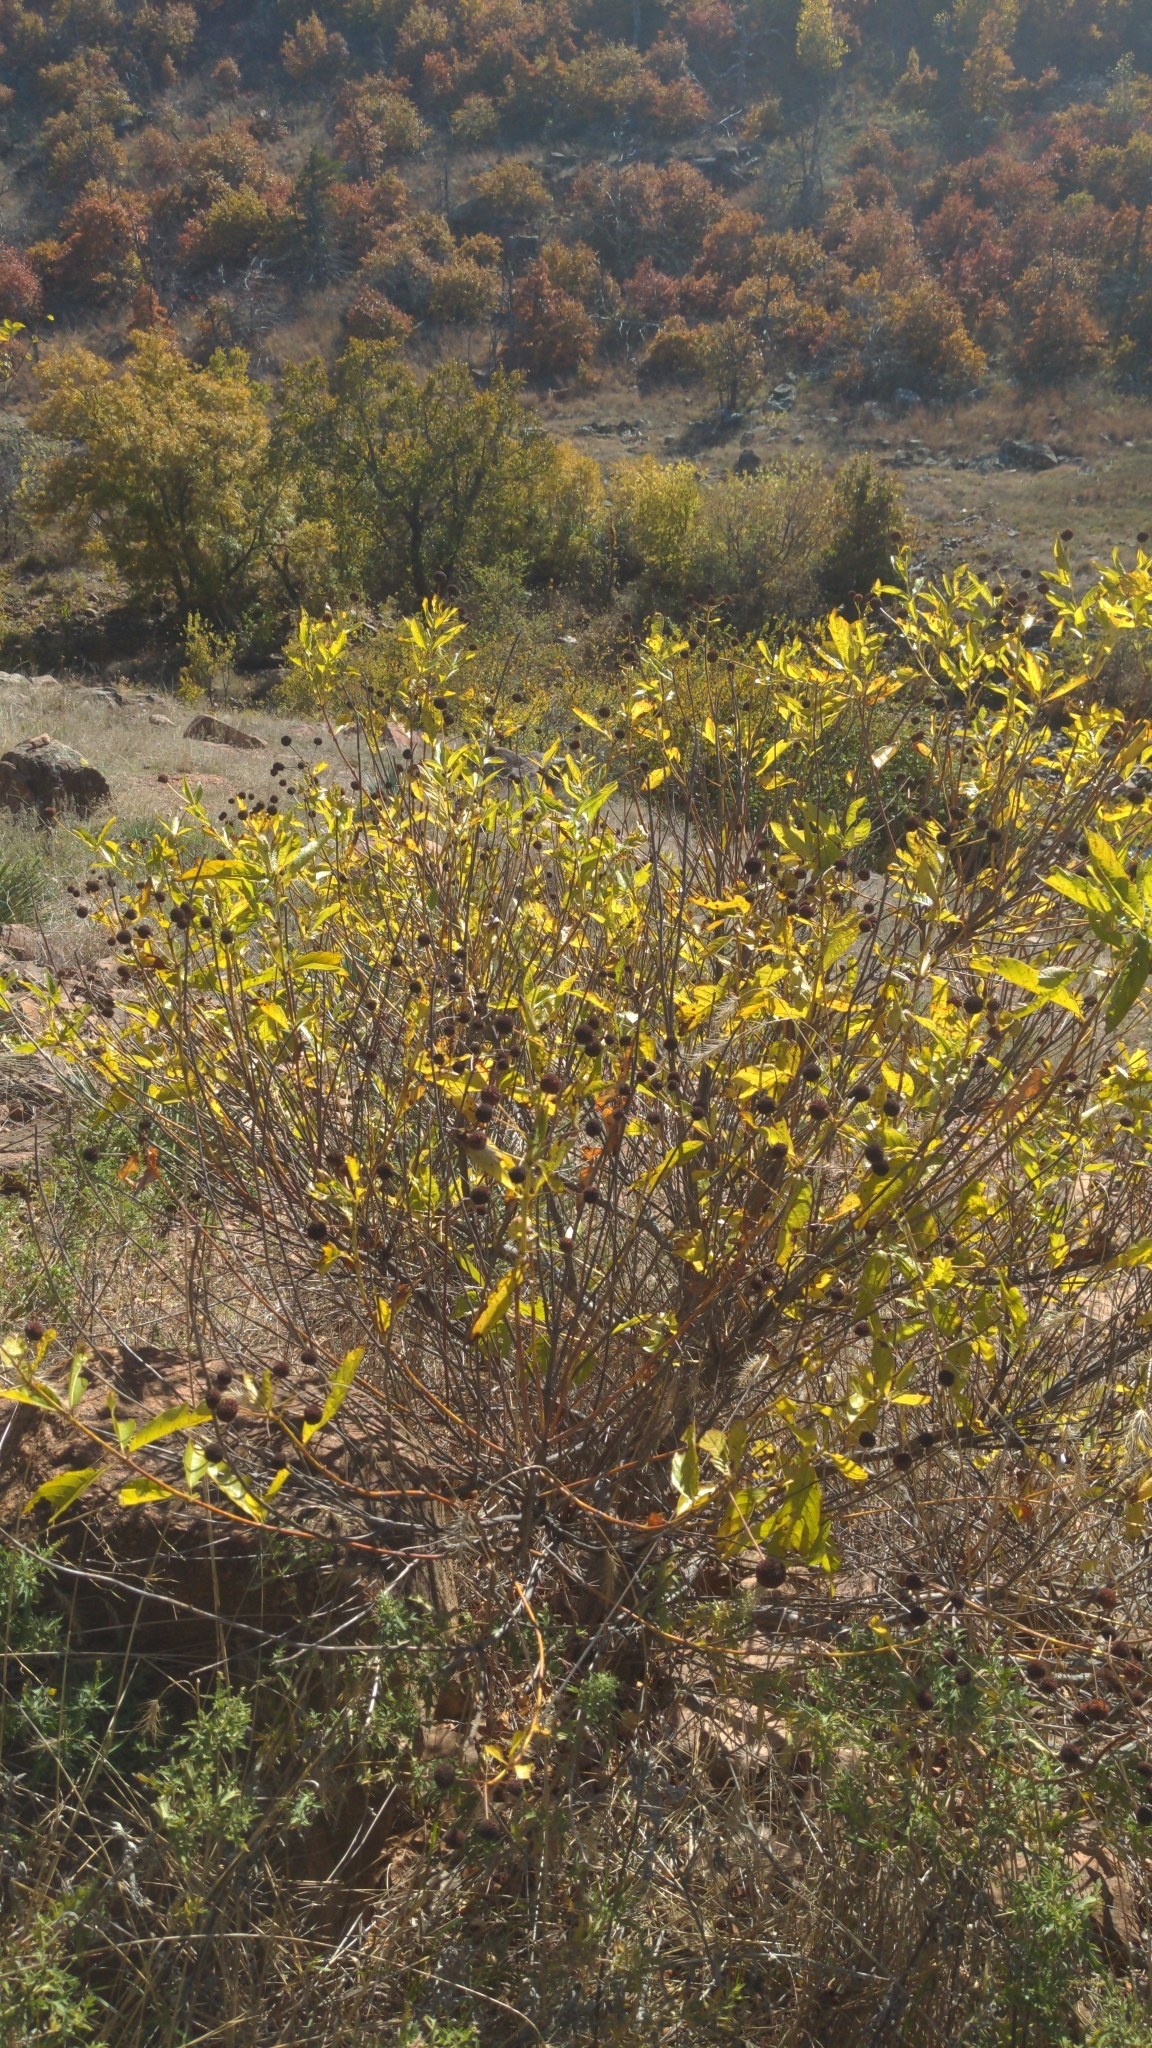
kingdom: Plantae
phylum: Tracheophyta
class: Magnoliopsida
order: Gentianales
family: Rubiaceae
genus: Cephalanthus
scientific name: Cephalanthus occidentalis
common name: Button-willow
